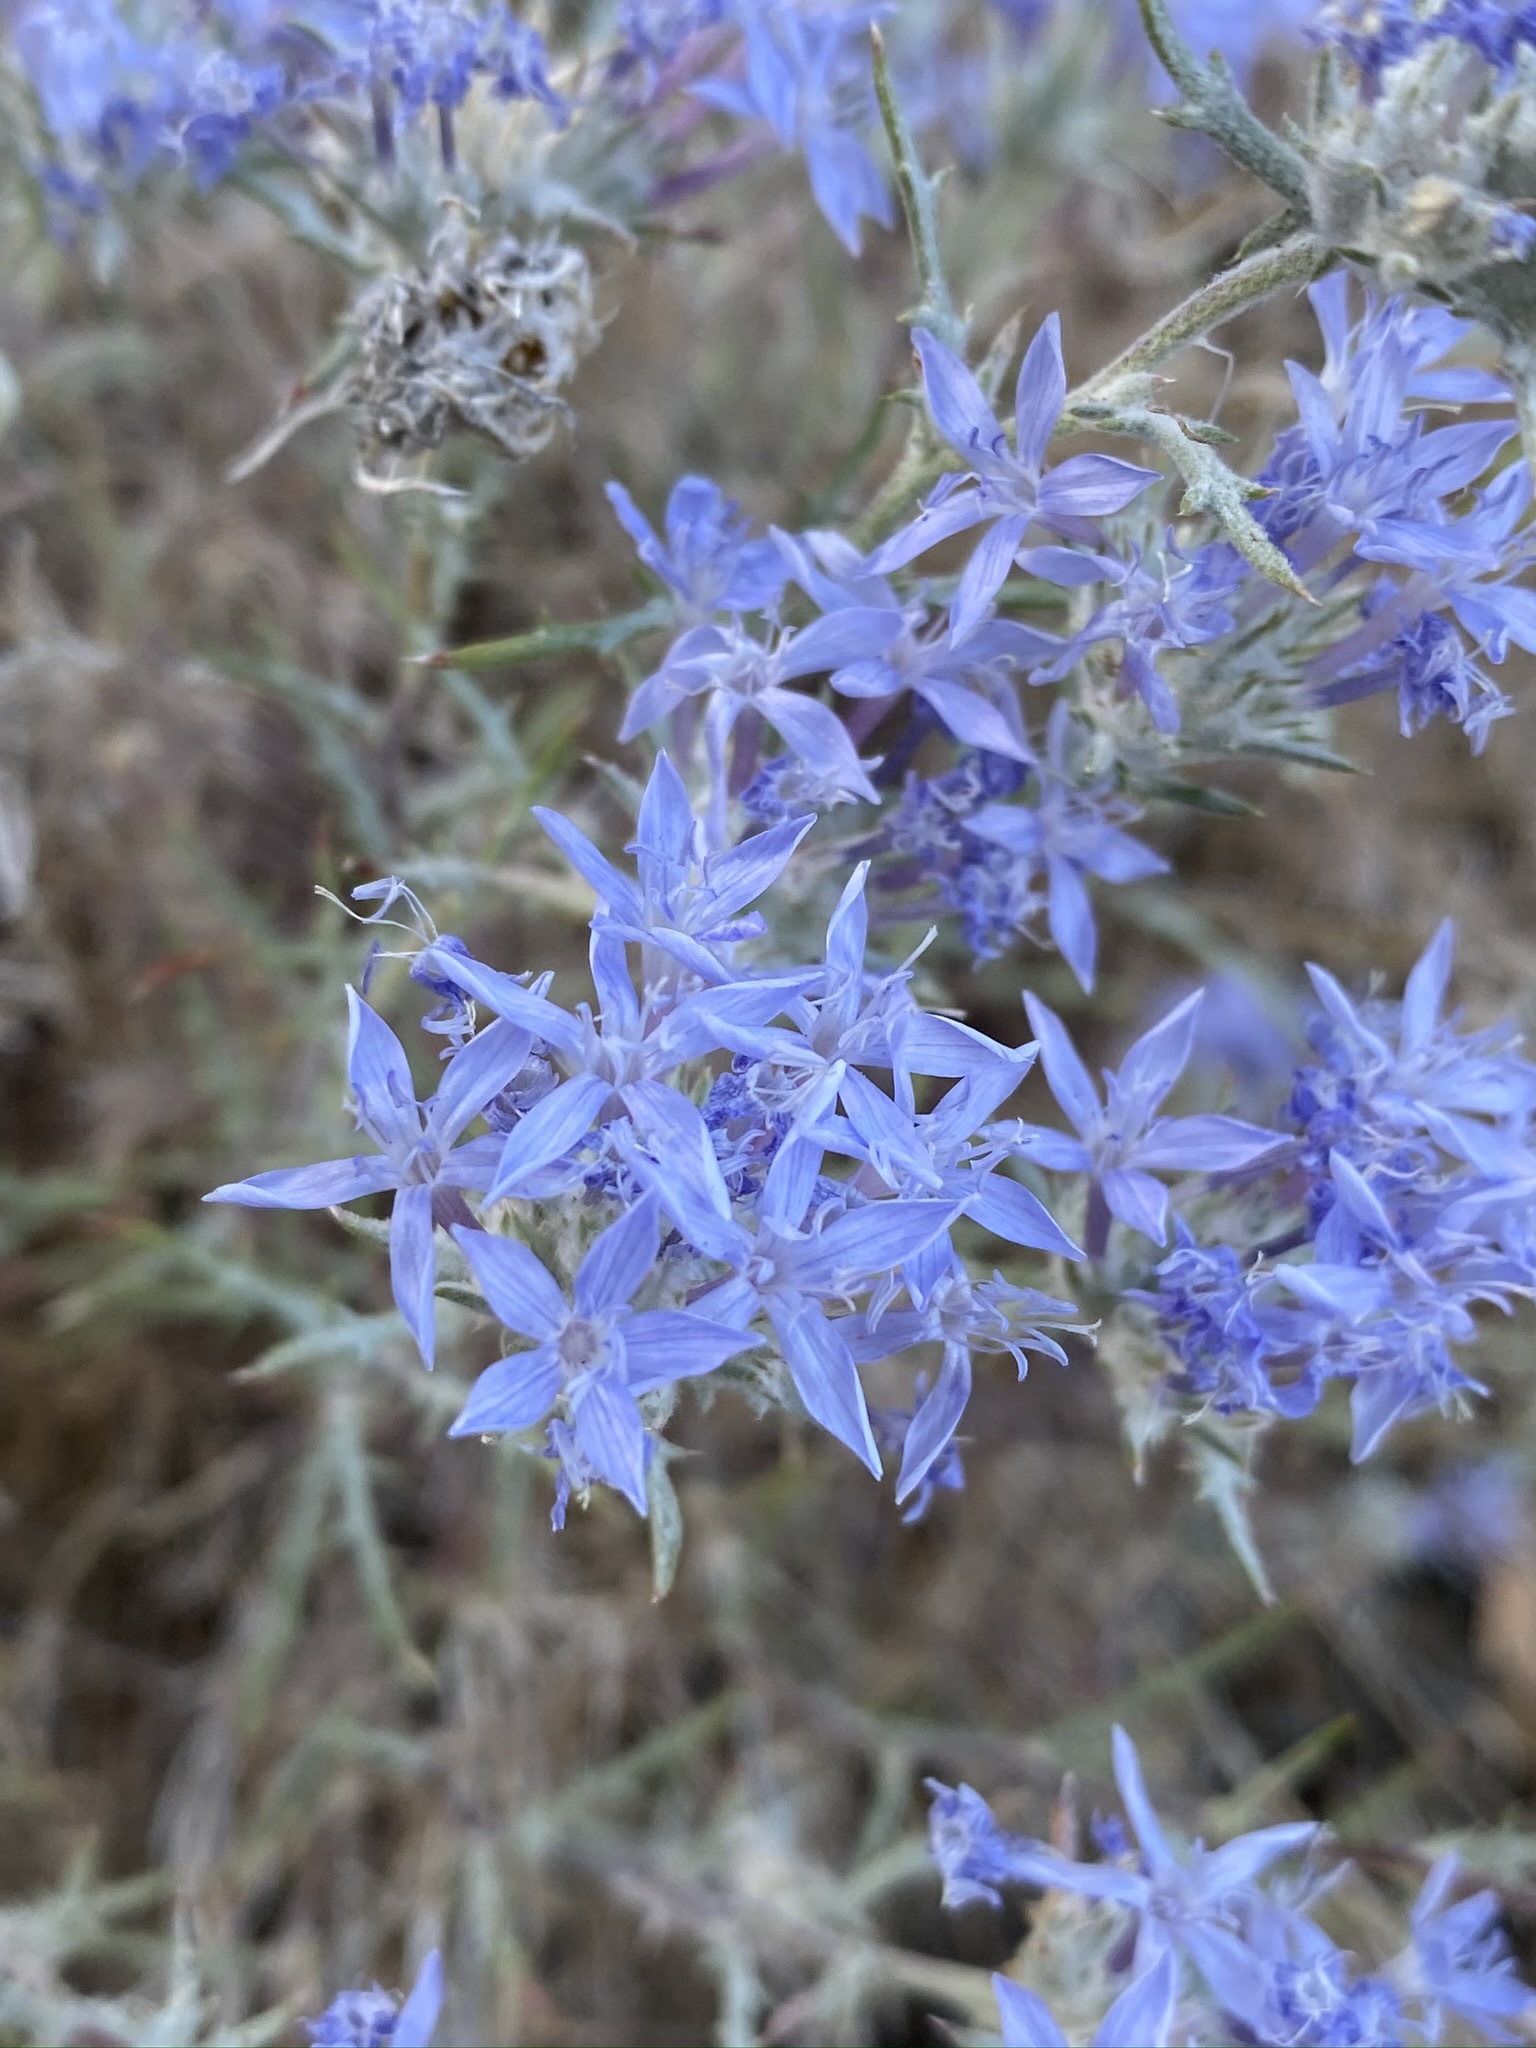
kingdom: Plantae
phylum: Tracheophyta
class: Magnoliopsida
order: Ericales
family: Polemoniaceae
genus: Eriastrum
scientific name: Eriastrum densifolium
